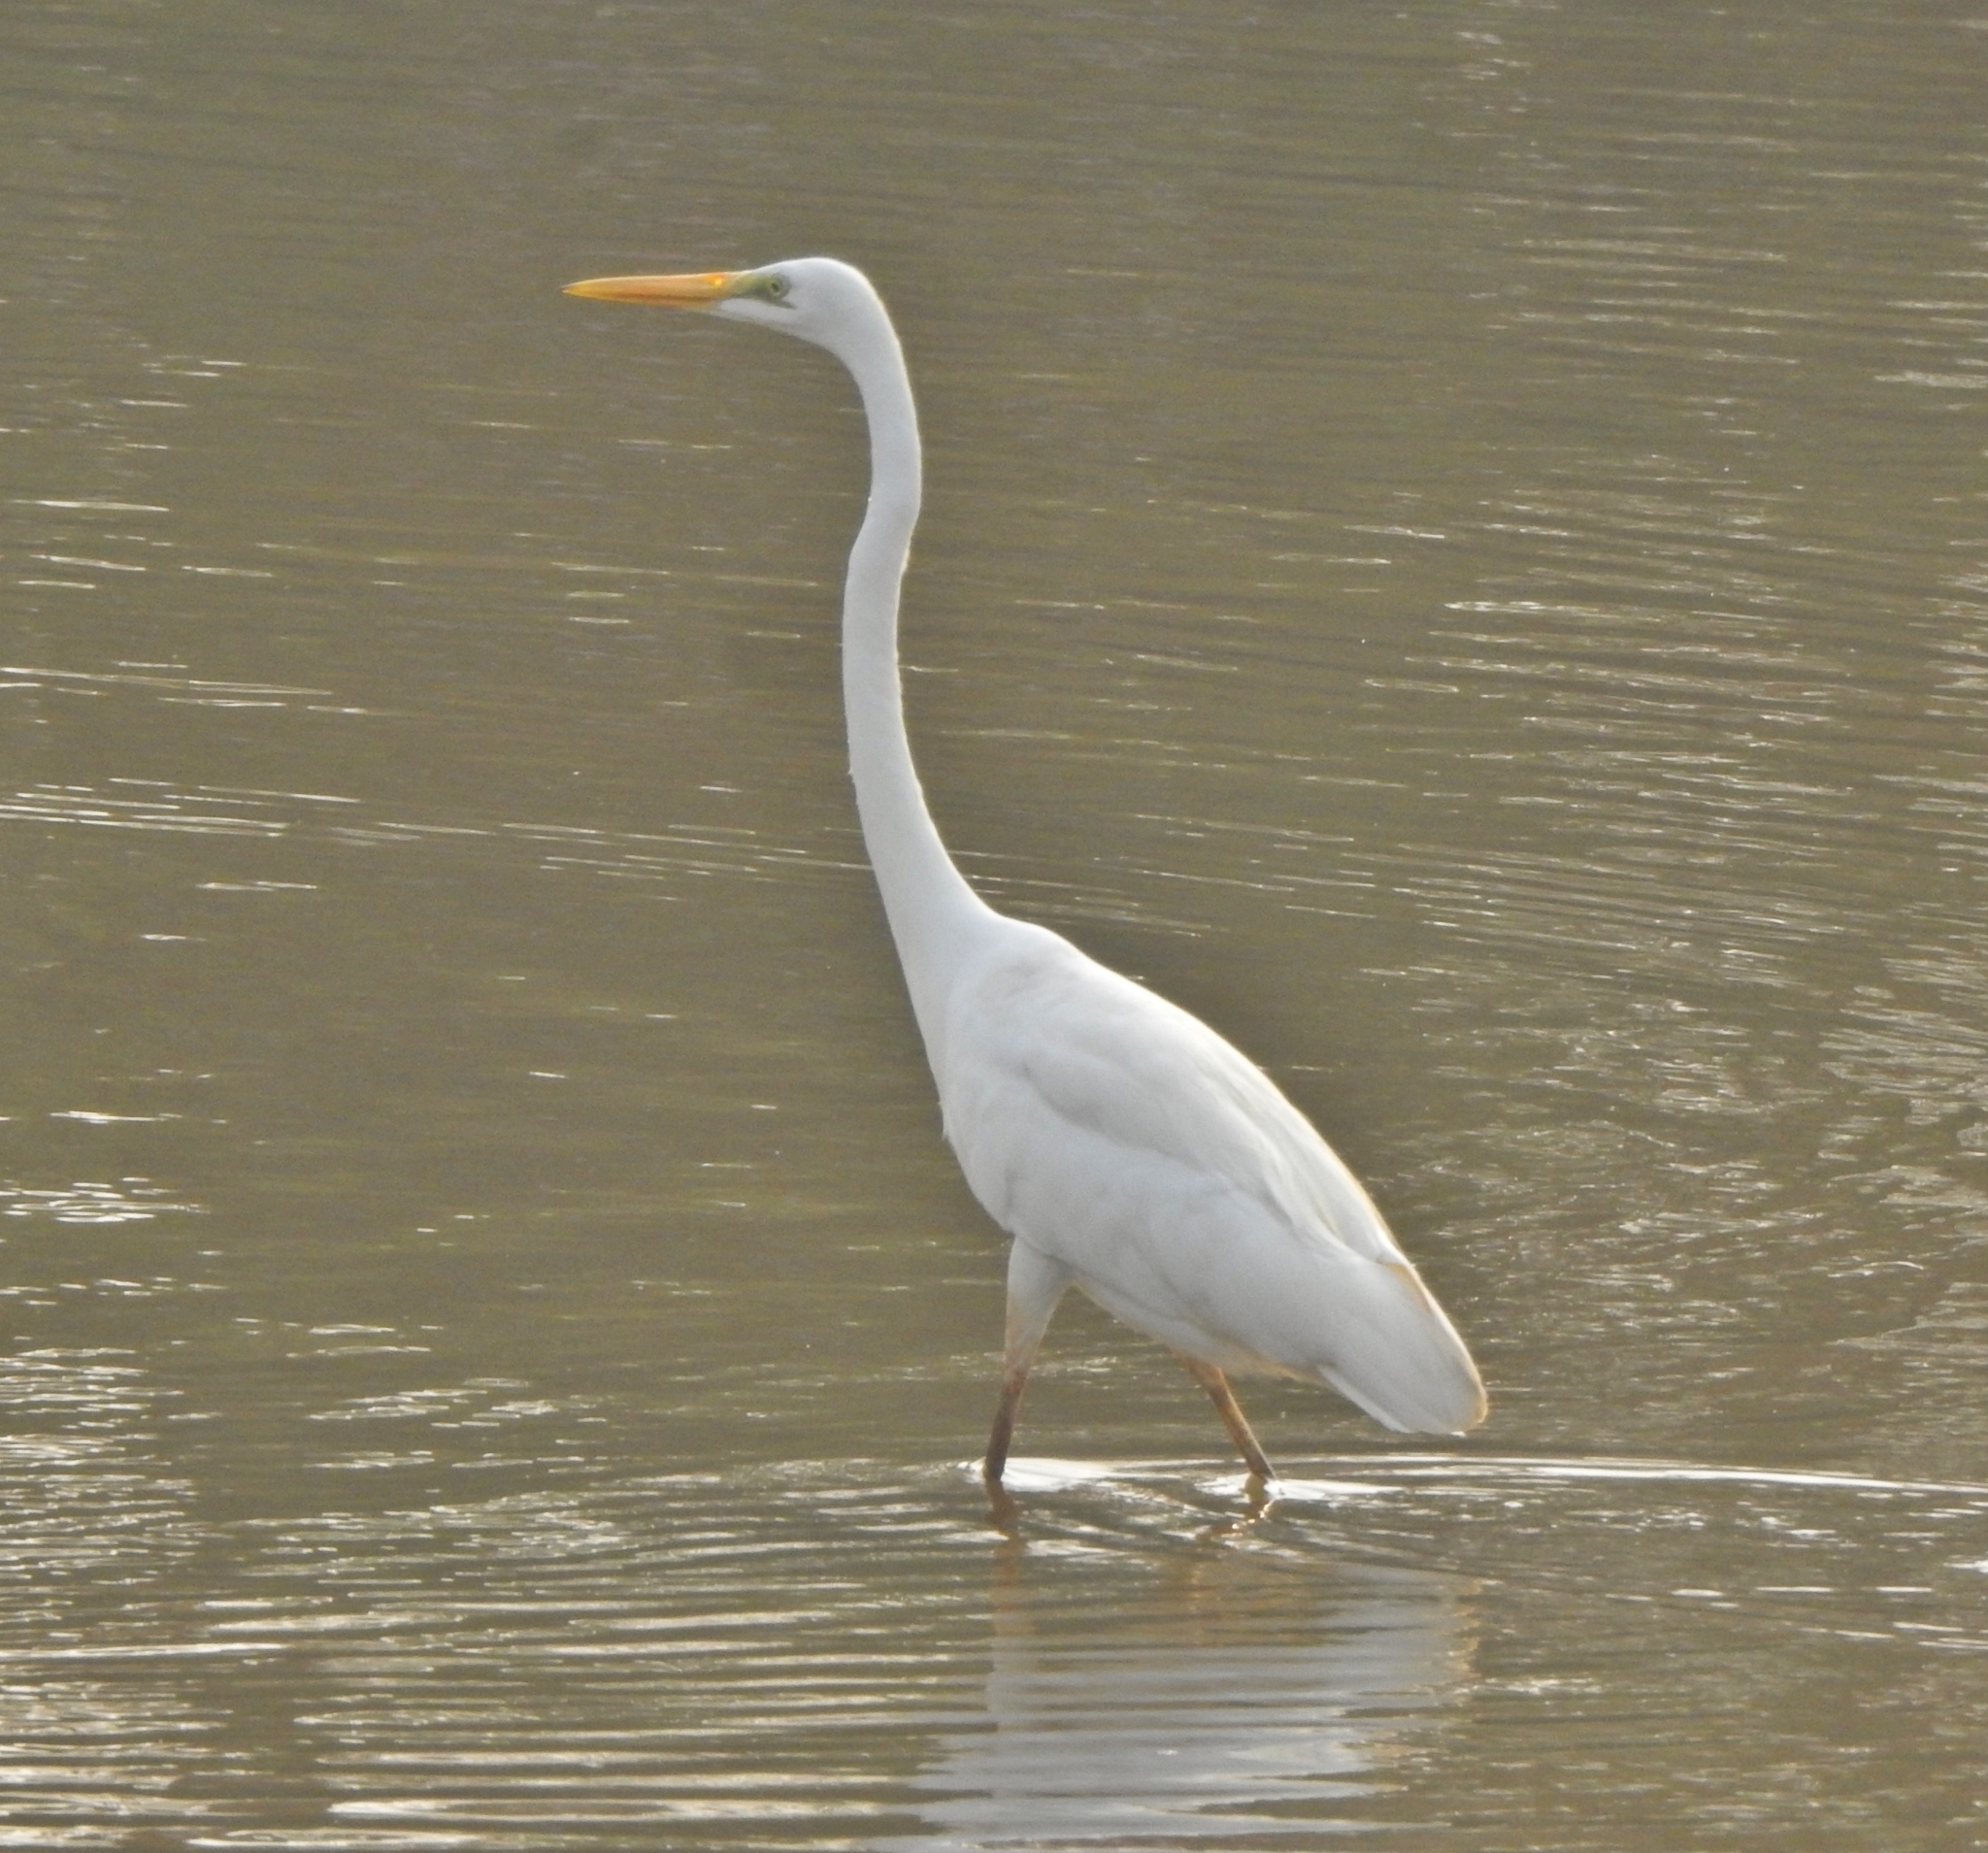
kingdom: Animalia
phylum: Chordata
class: Aves
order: Pelecaniformes
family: Ardeidae
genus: Ardea
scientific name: Ardea alba
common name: Great egret
